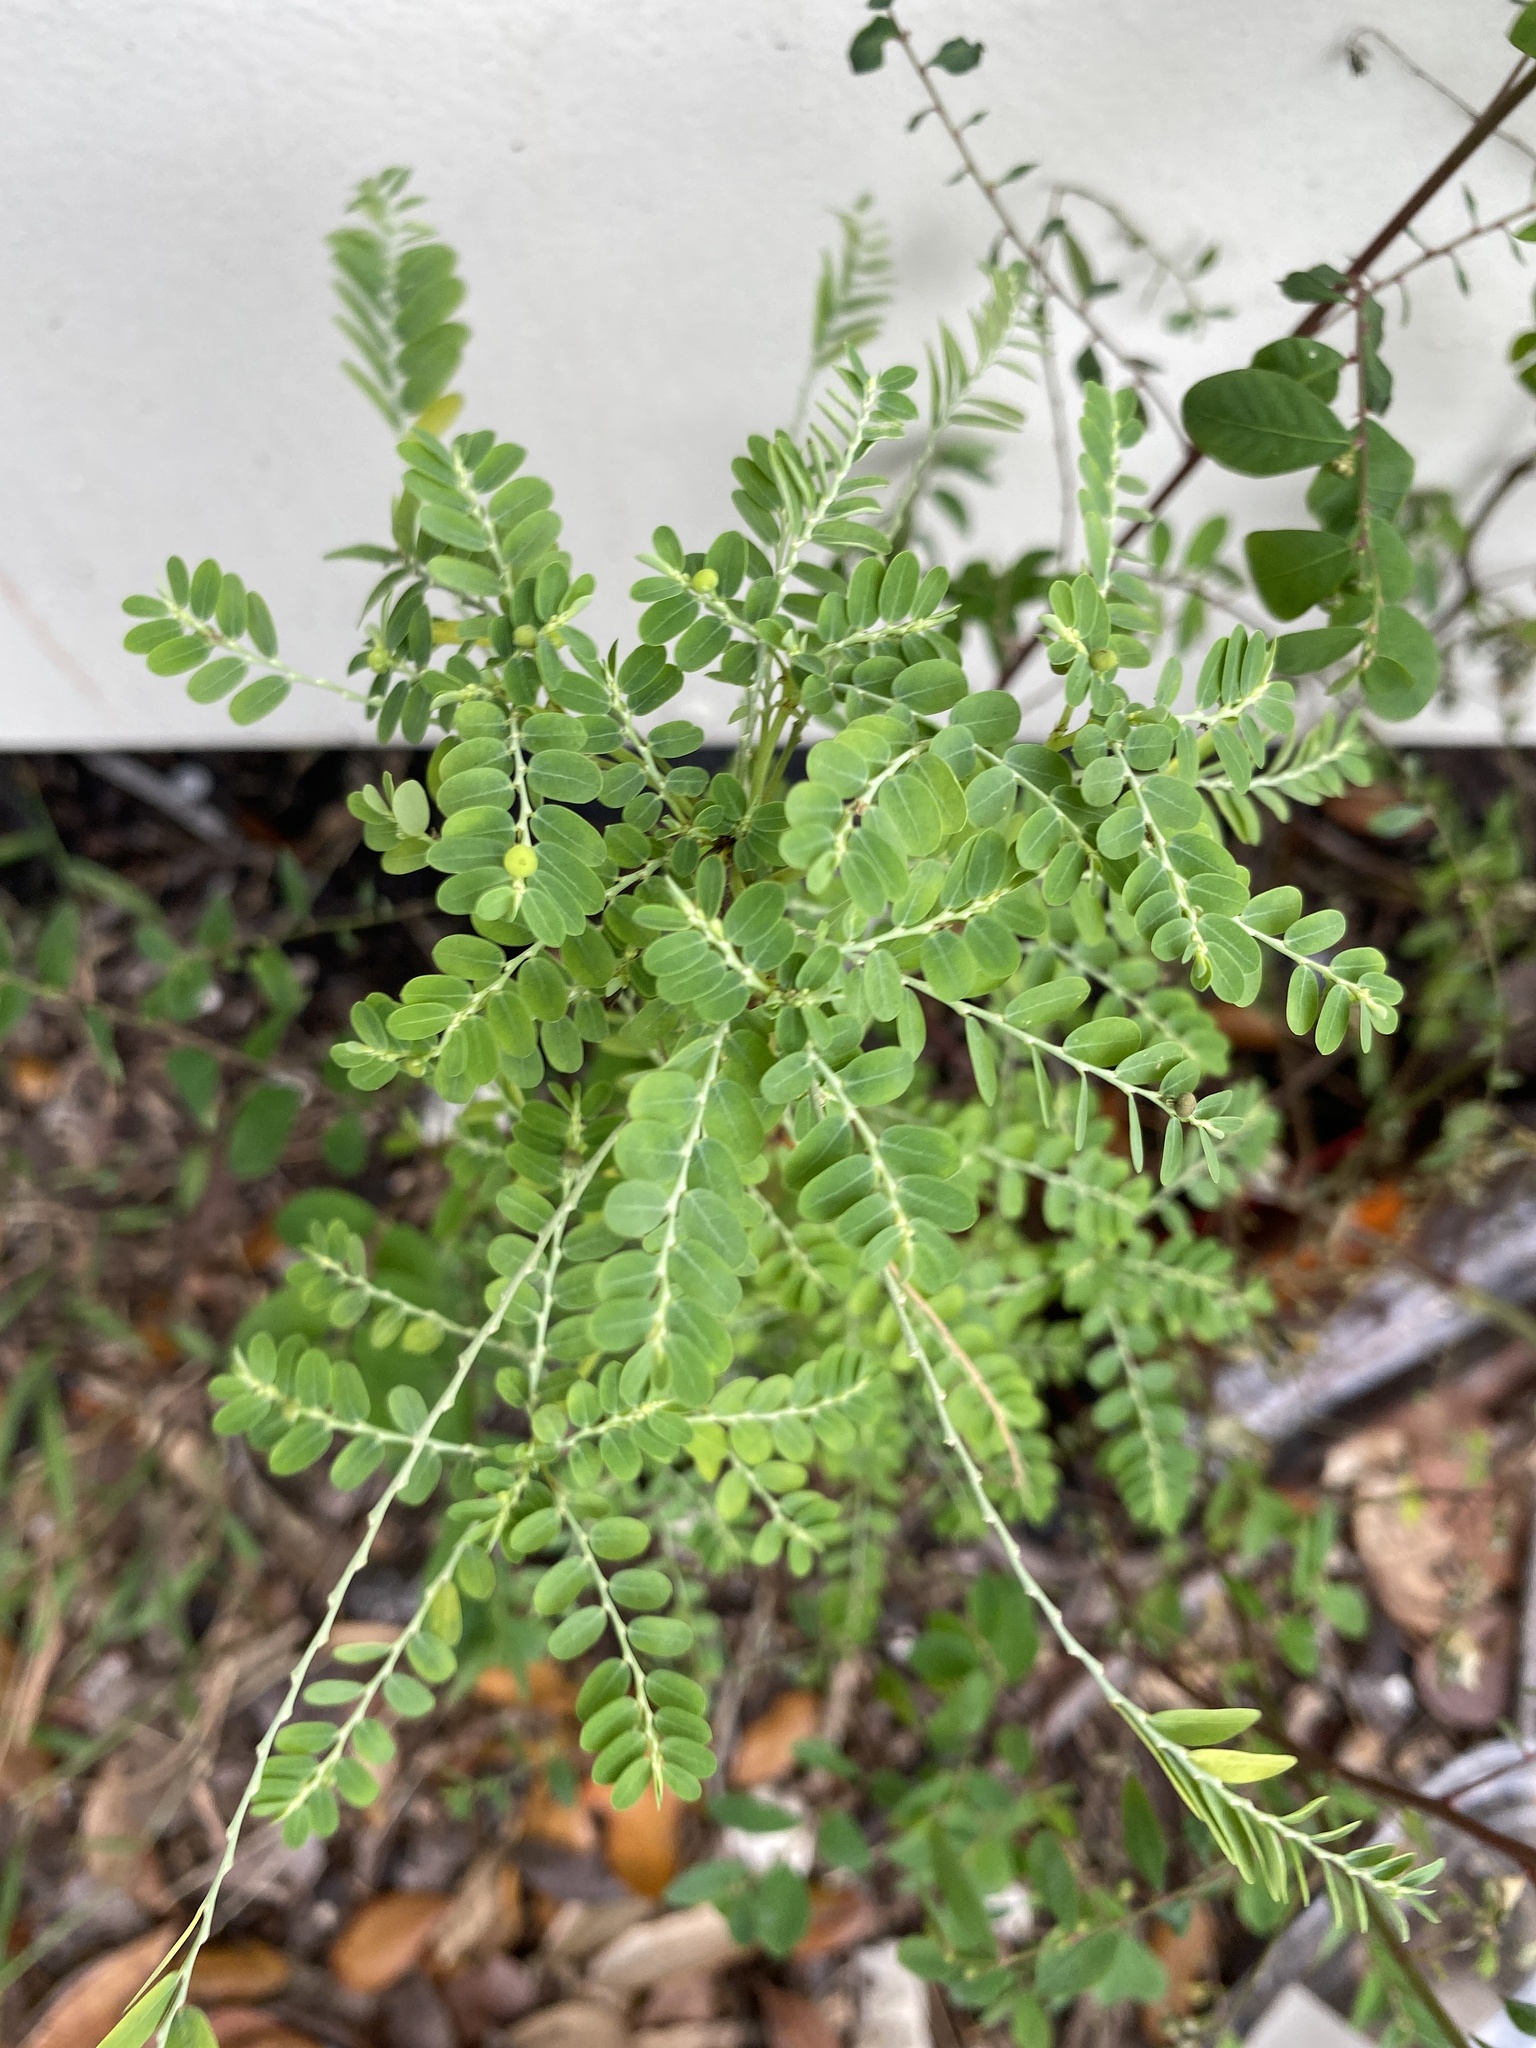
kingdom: Plantae
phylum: Tracheophyta
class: Magnoliopsida
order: Malpighiales
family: Phyllanthaceae
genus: Phyllanthus
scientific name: Phyllanthus amarus
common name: Carry me seed
